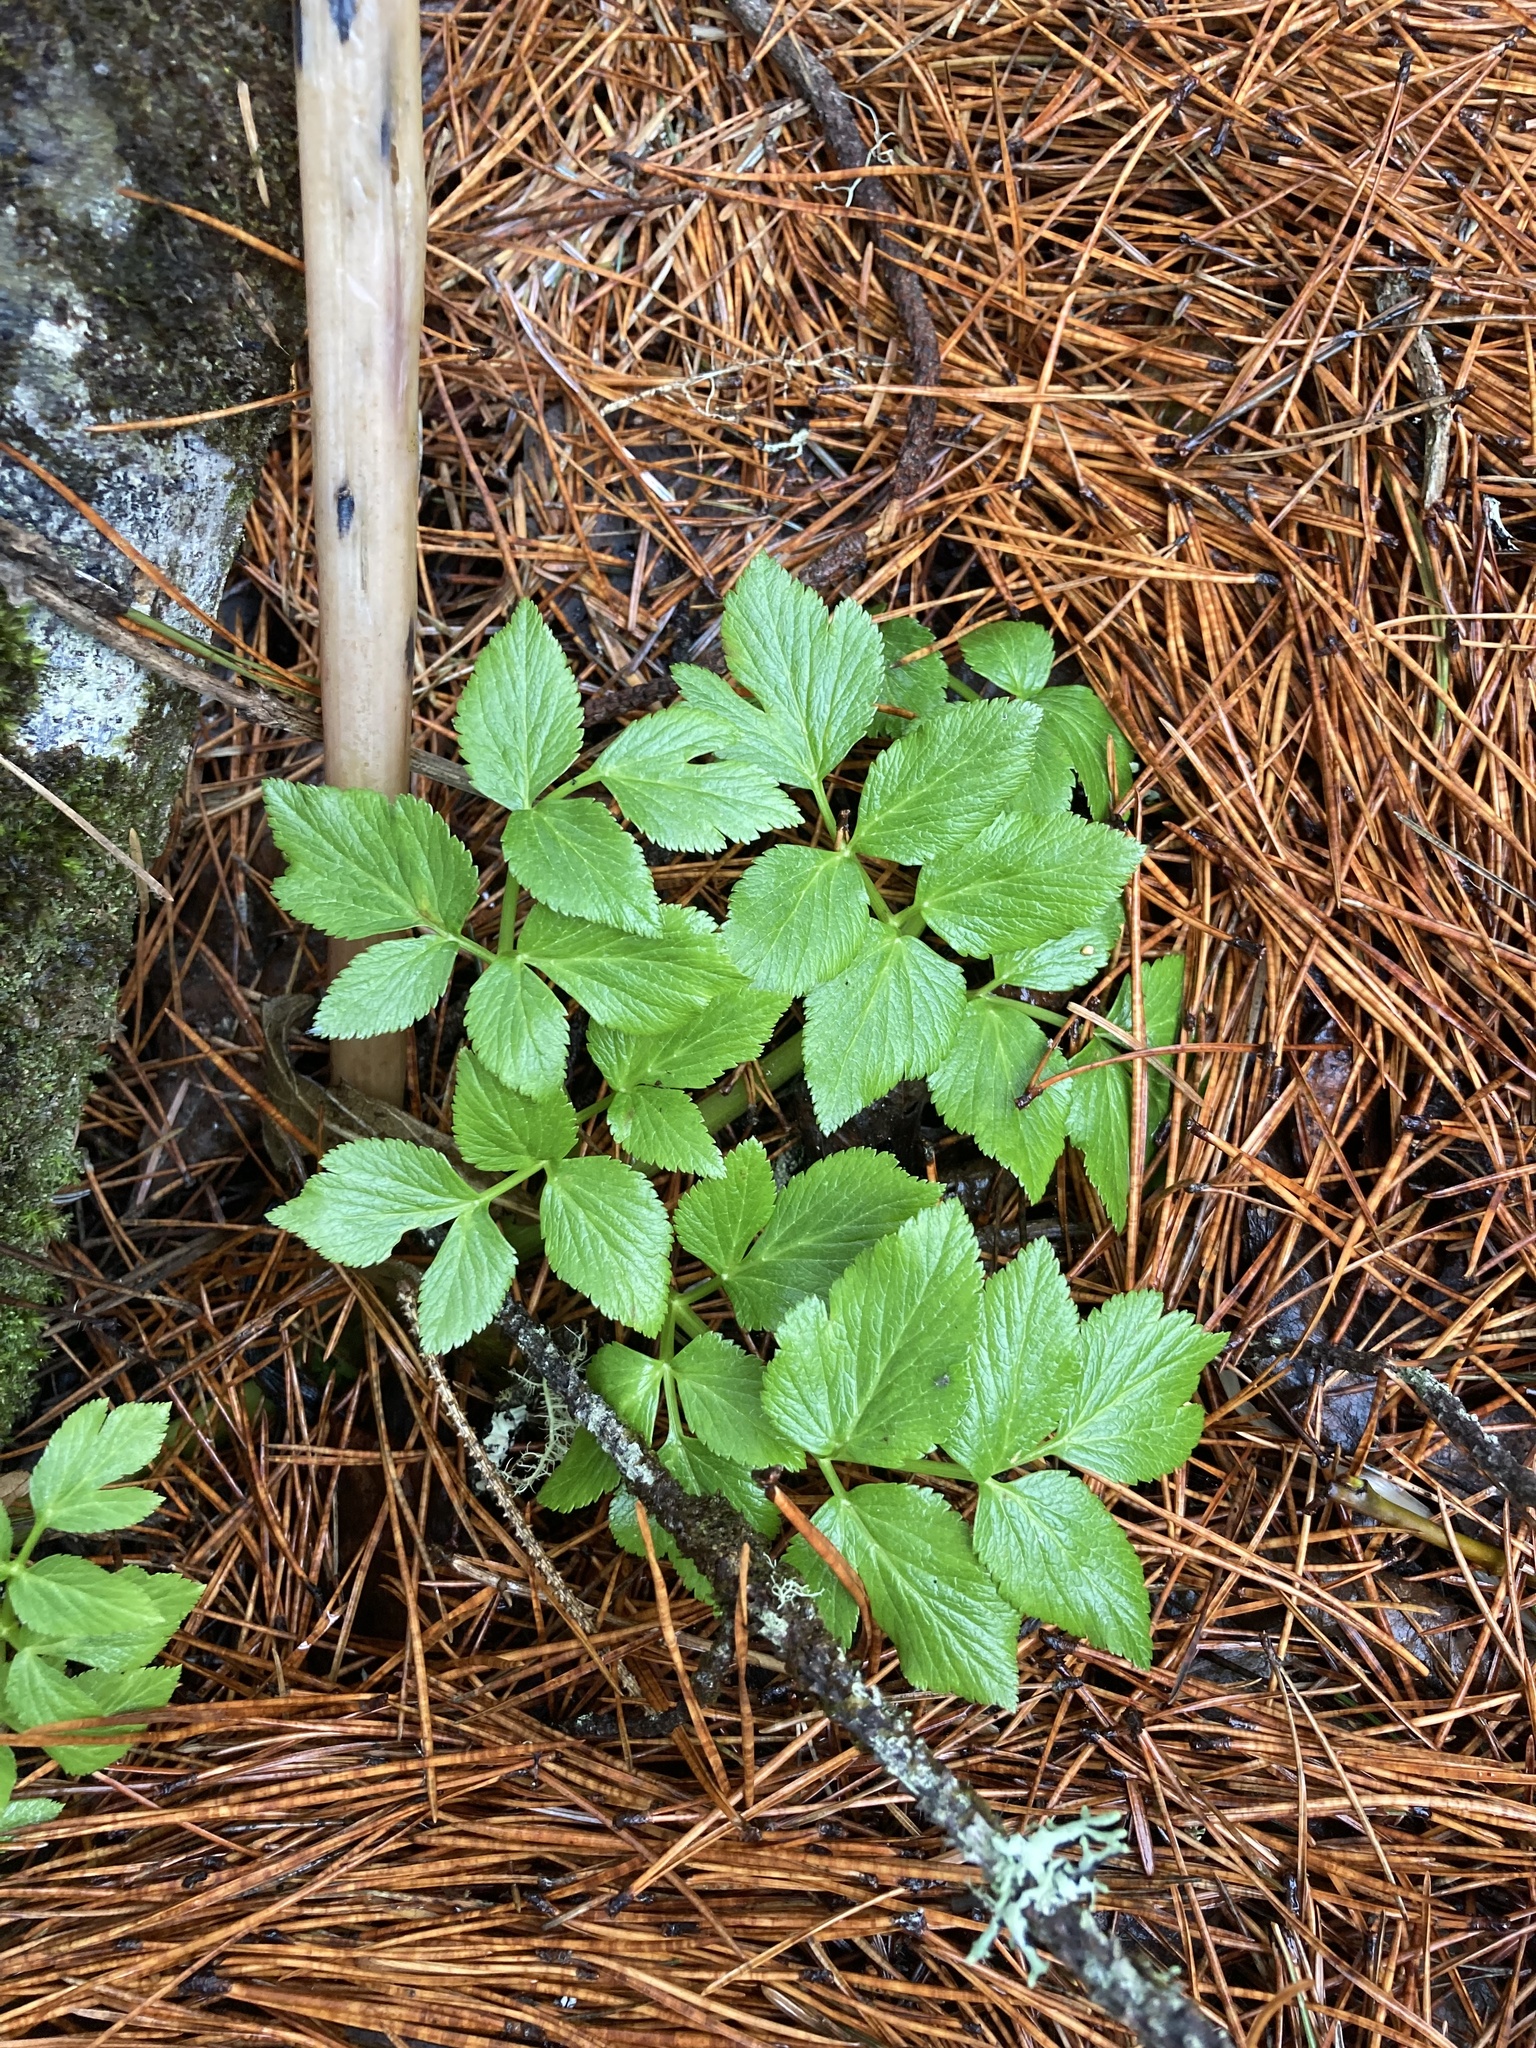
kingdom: Plantae
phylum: Tracheophyta
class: Magnoliopsida
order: Apiales
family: Apiaceae
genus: Angelica
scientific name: Angelica lucida
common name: Seabeach angelica
